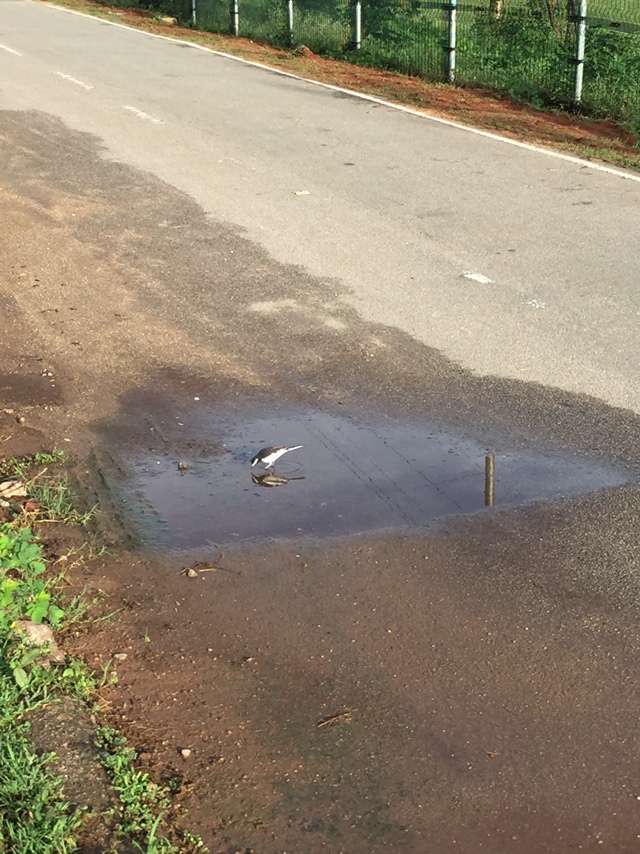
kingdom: Animalia
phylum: Chordata
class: Aves
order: Passeriformes
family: Motacillidae
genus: Motacilla
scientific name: Motacilla maderaspatensis
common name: White-browed wagtail
